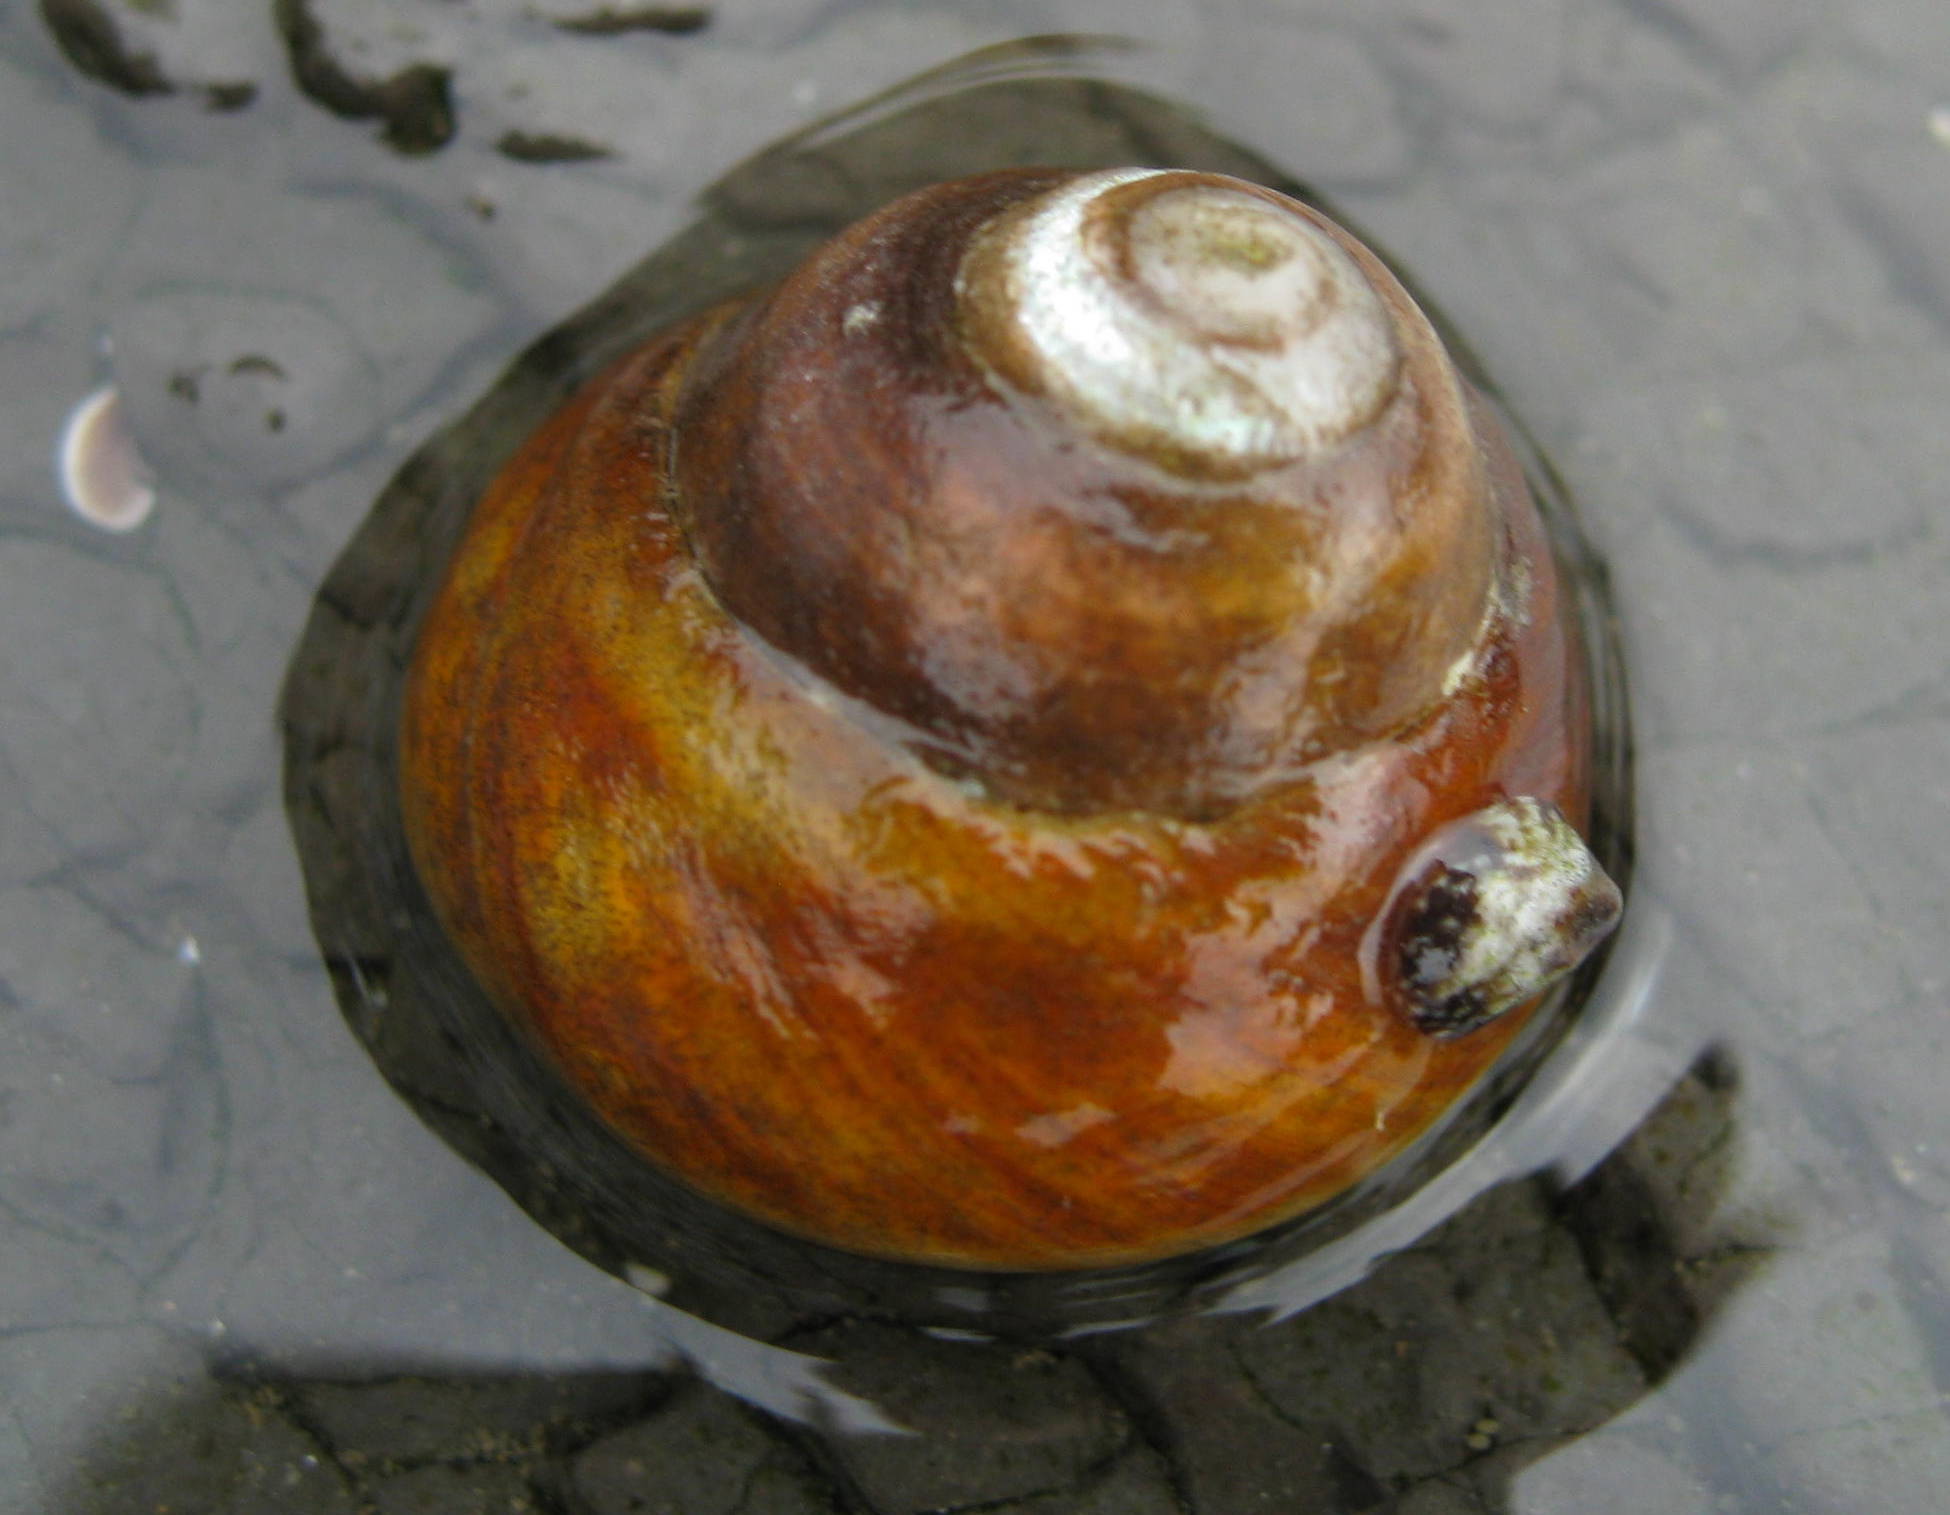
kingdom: Animalia
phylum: Mollusca
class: Gastropoda
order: Trochida
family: Tegulidae
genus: Tegula
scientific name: Tegula brunnea
